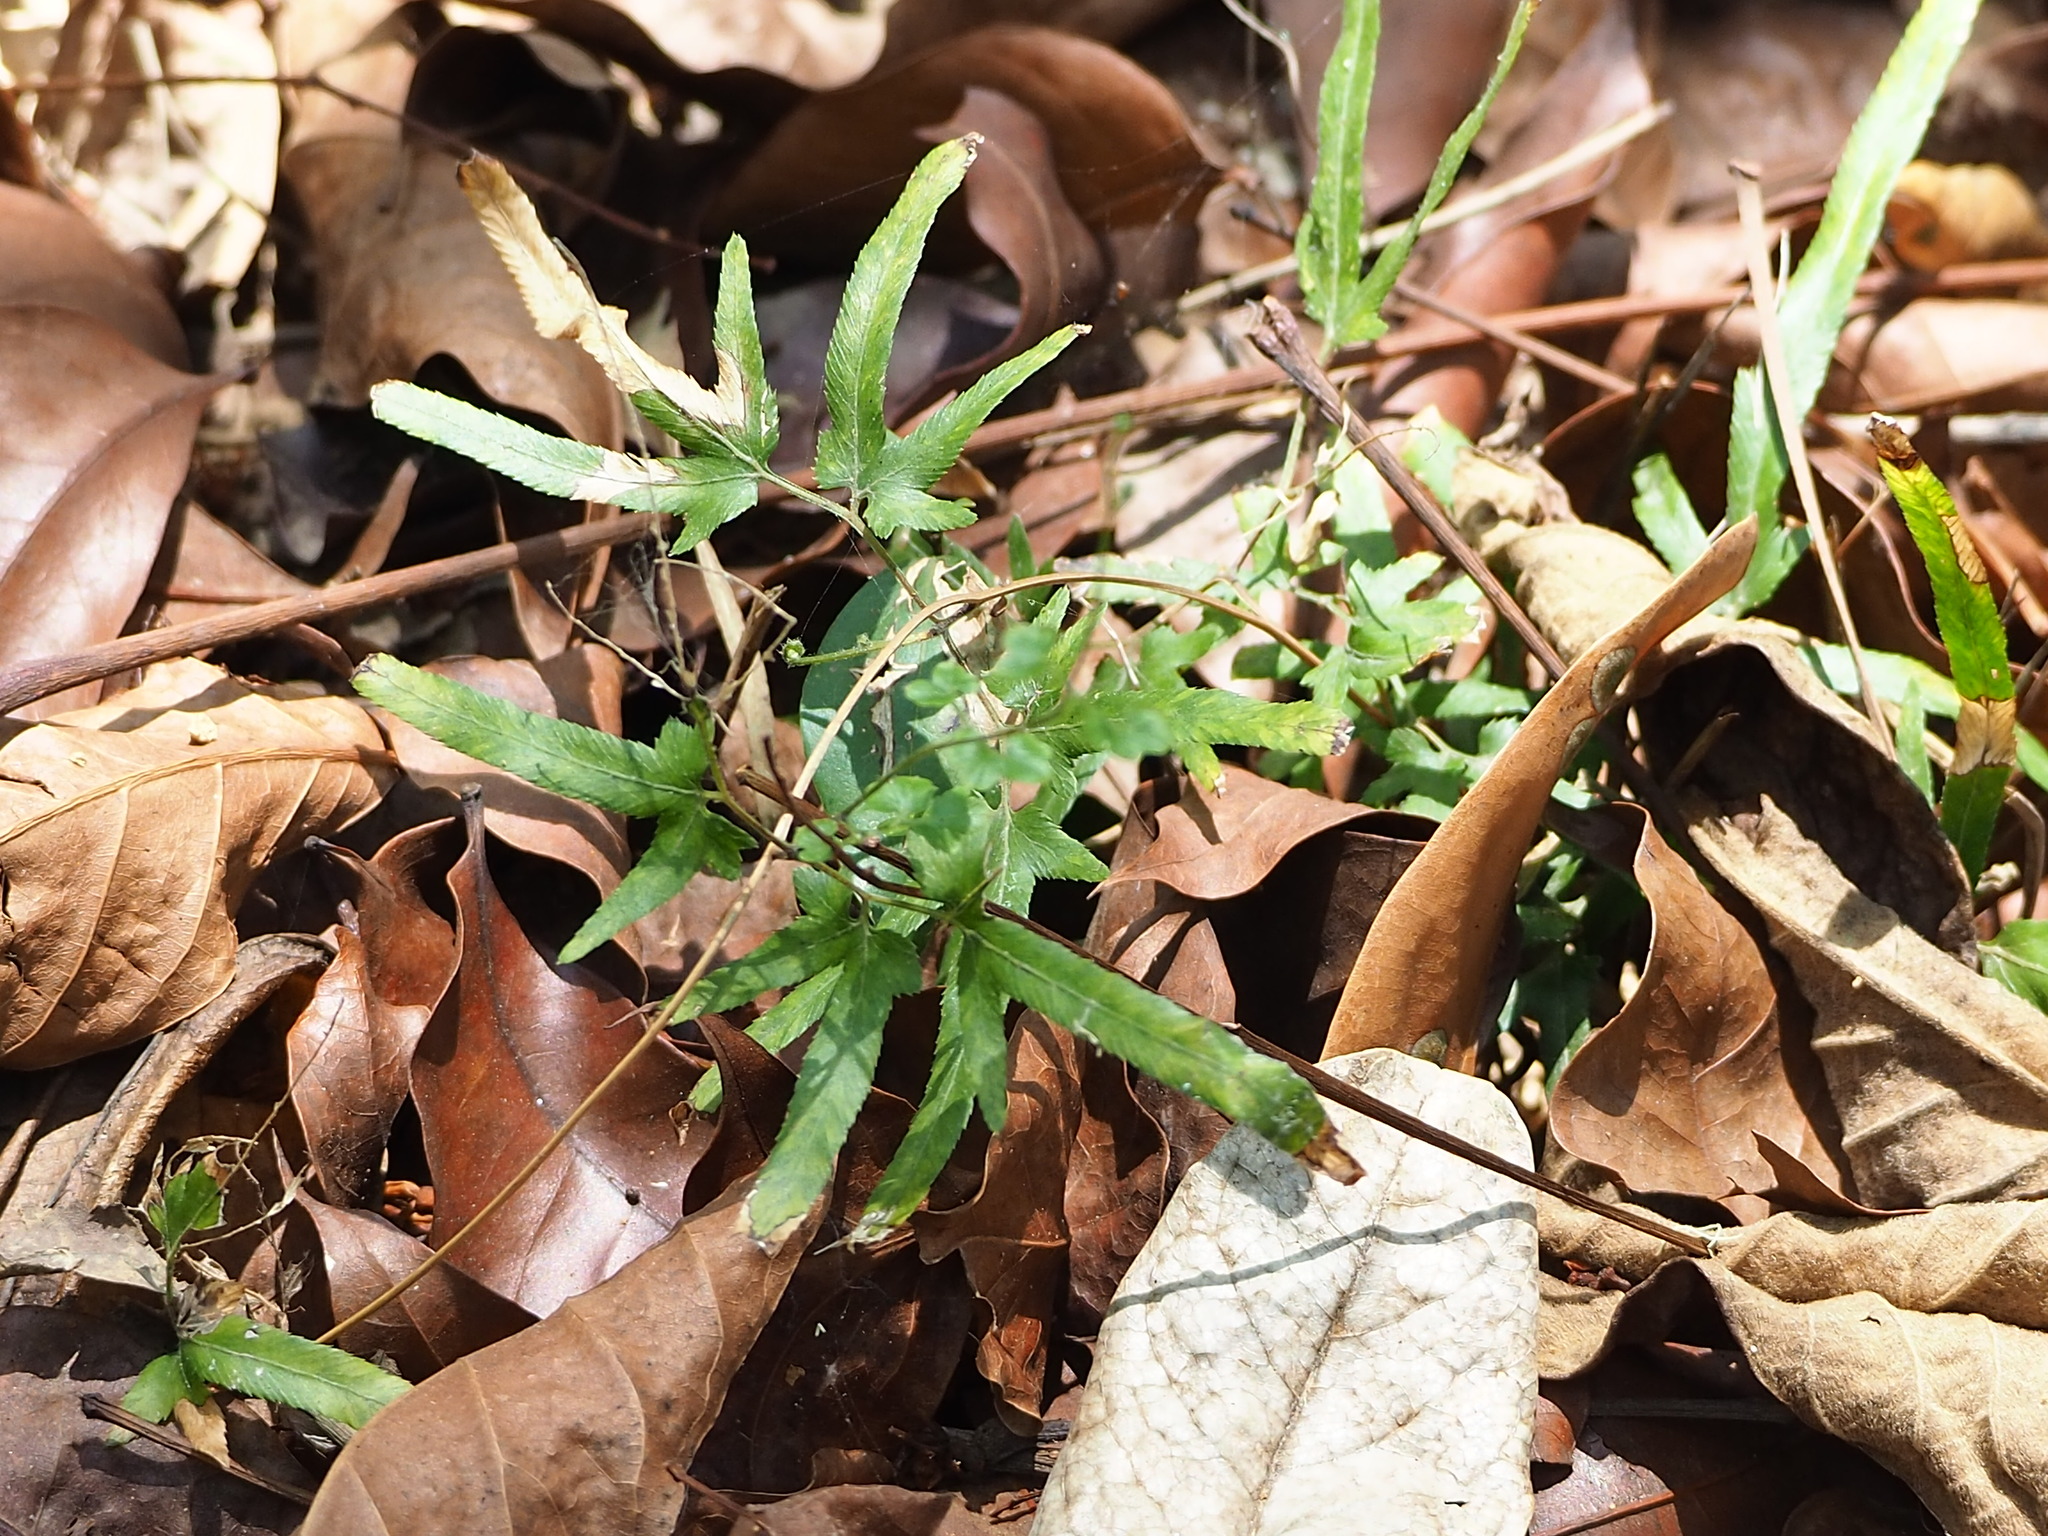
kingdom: Plantae
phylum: Tracheophyta
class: Polypodiopsida
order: Schizaeales
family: Lygodiaceae
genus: Lygodium
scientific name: Lygodium japonicum
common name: Japanese climbing fern
